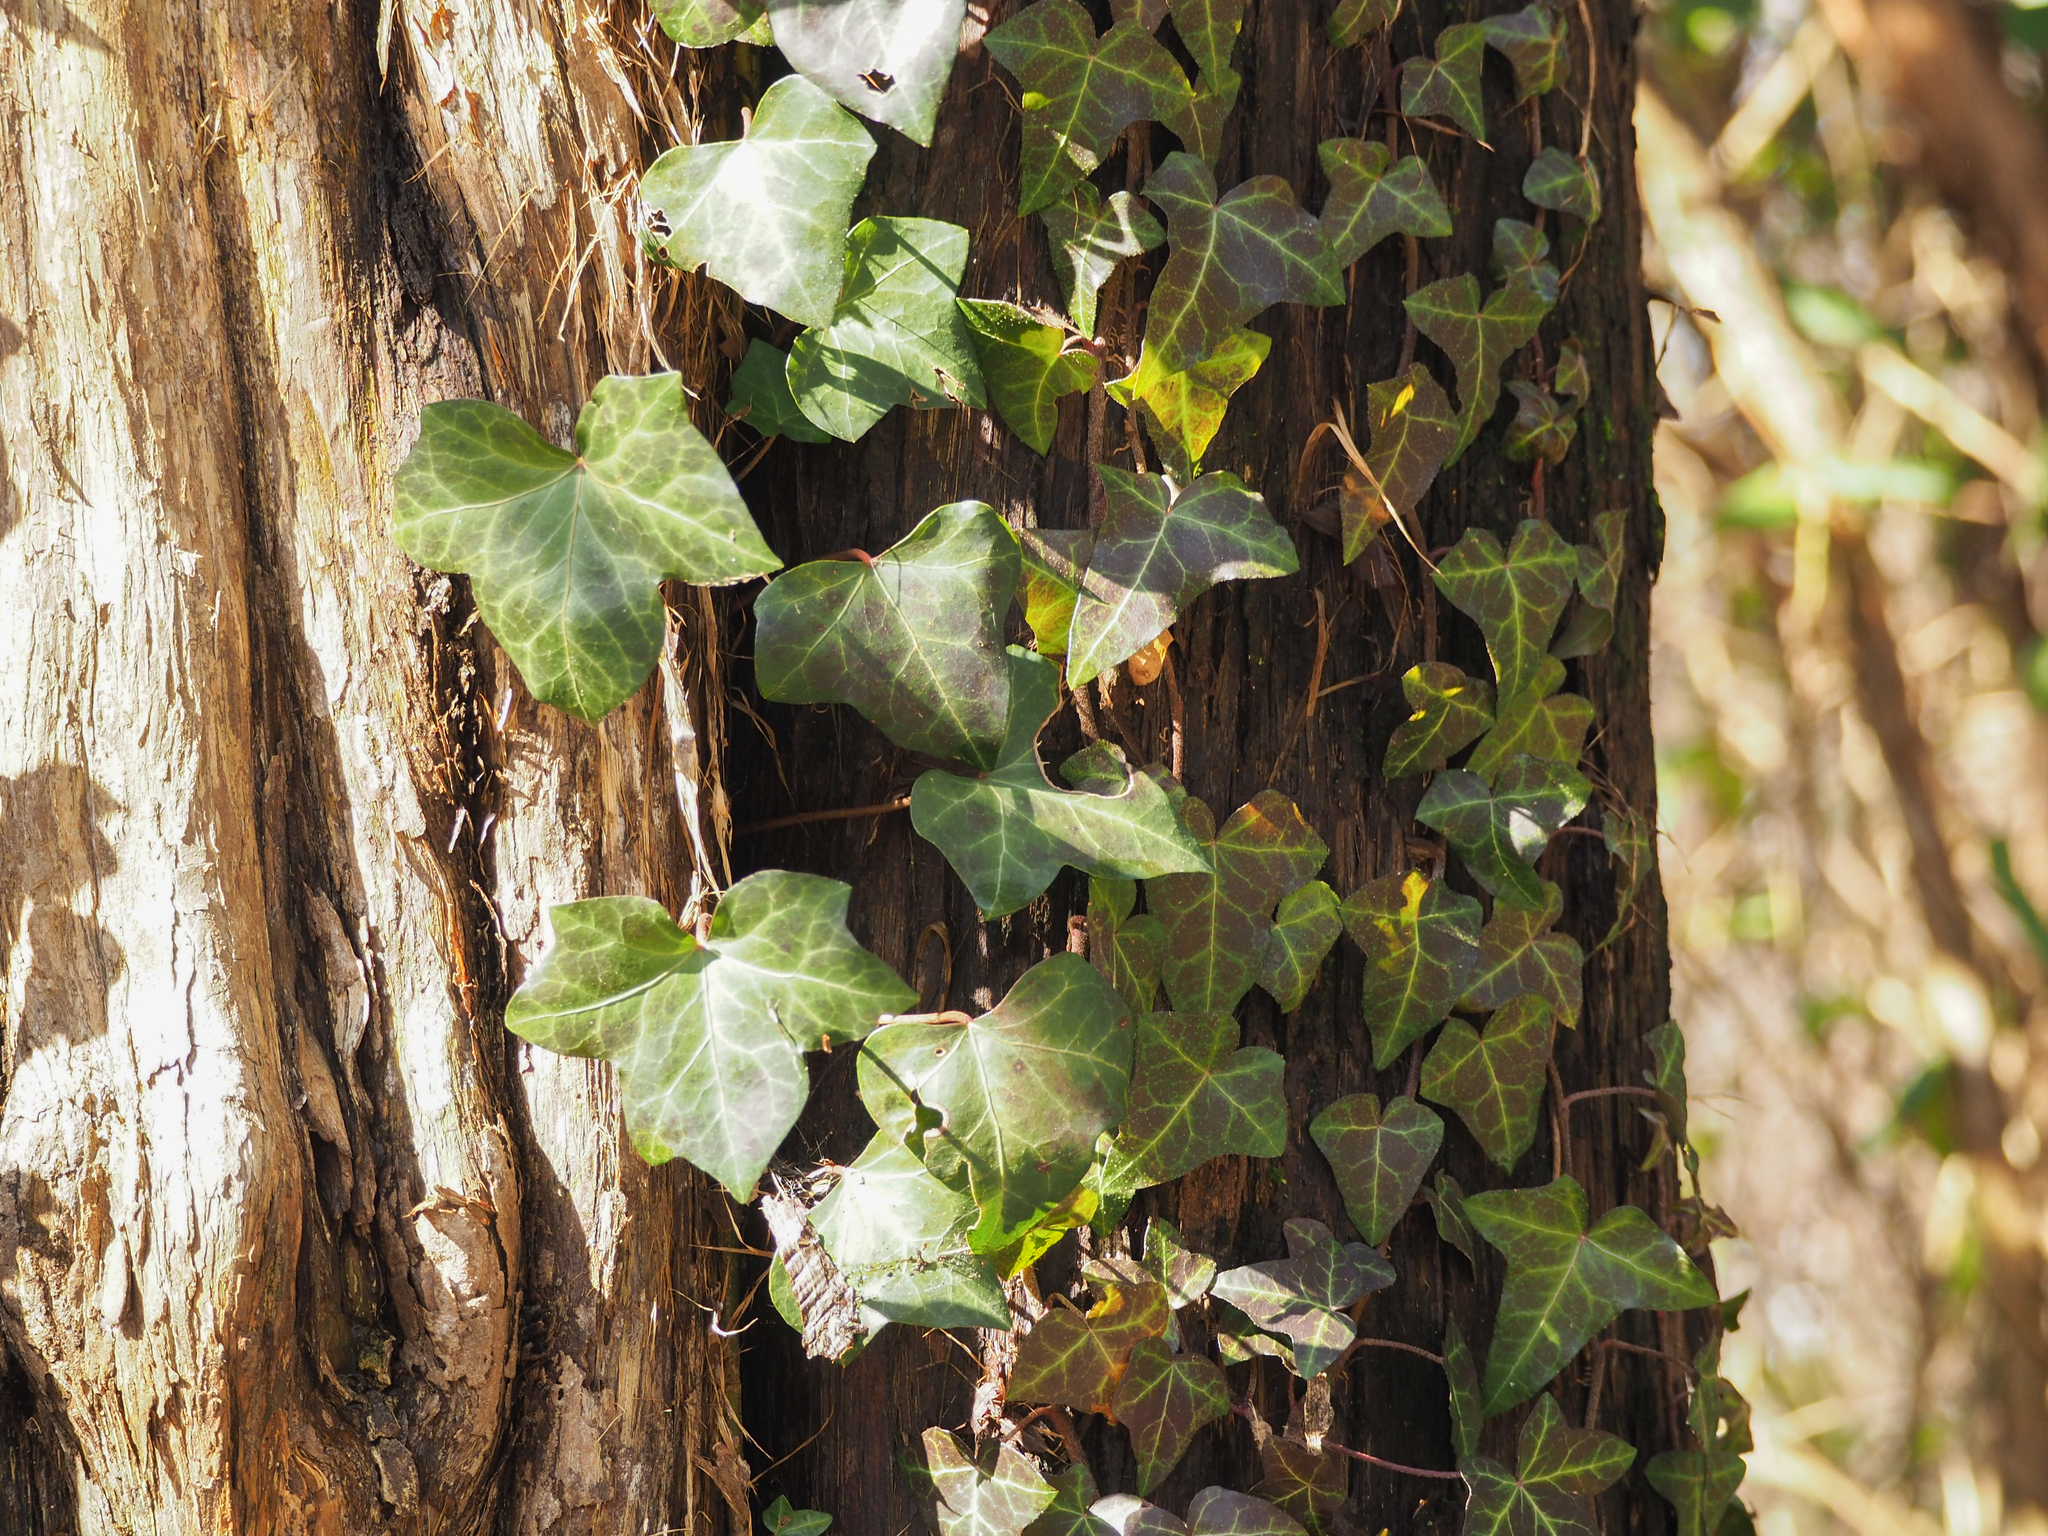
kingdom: Plantae
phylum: Tracheophyta
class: Magnoliopsida
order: Apiales
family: Araliaceae
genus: Hedera
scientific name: Hedera helix
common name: Ivy
